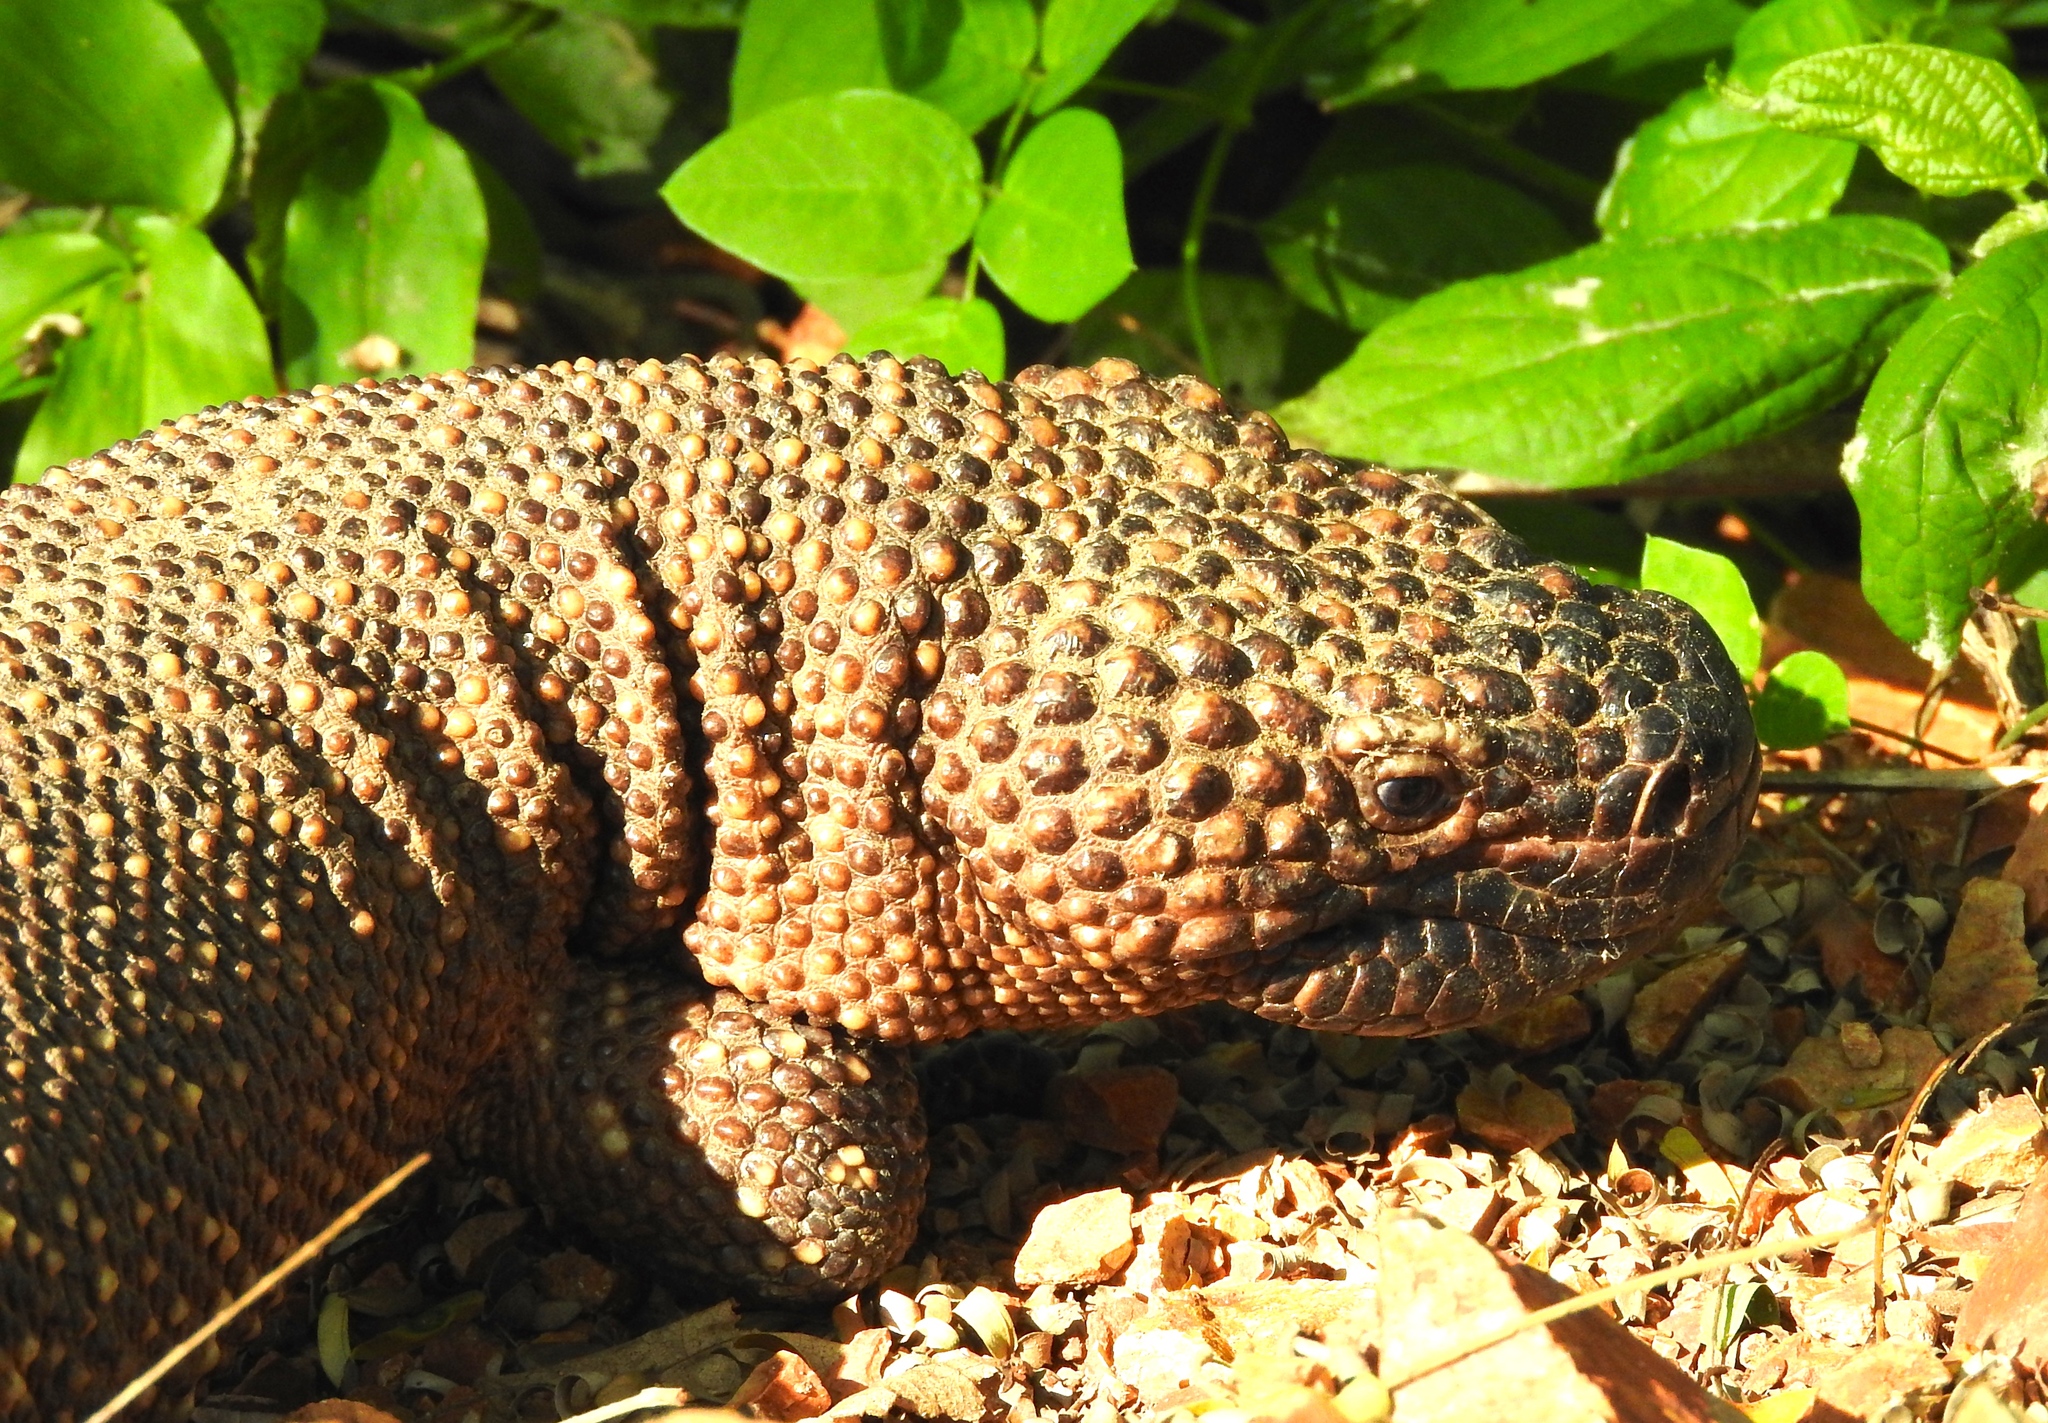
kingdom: Animalia
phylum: Chordata
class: Squamata
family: Helodermatidae
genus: Heloderma
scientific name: Heloderma horridum
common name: Mexican beaded lizard
